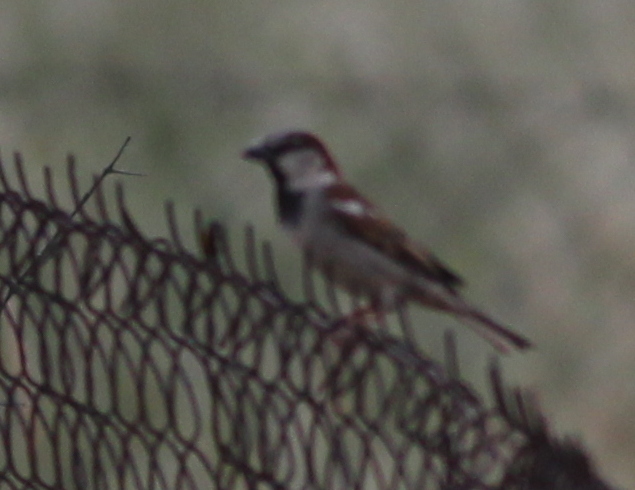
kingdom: Animalia
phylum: Chordata
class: Aves
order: Passeriformes
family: Passeridae
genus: Passer
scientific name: Passer domesticus
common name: House sparrow
